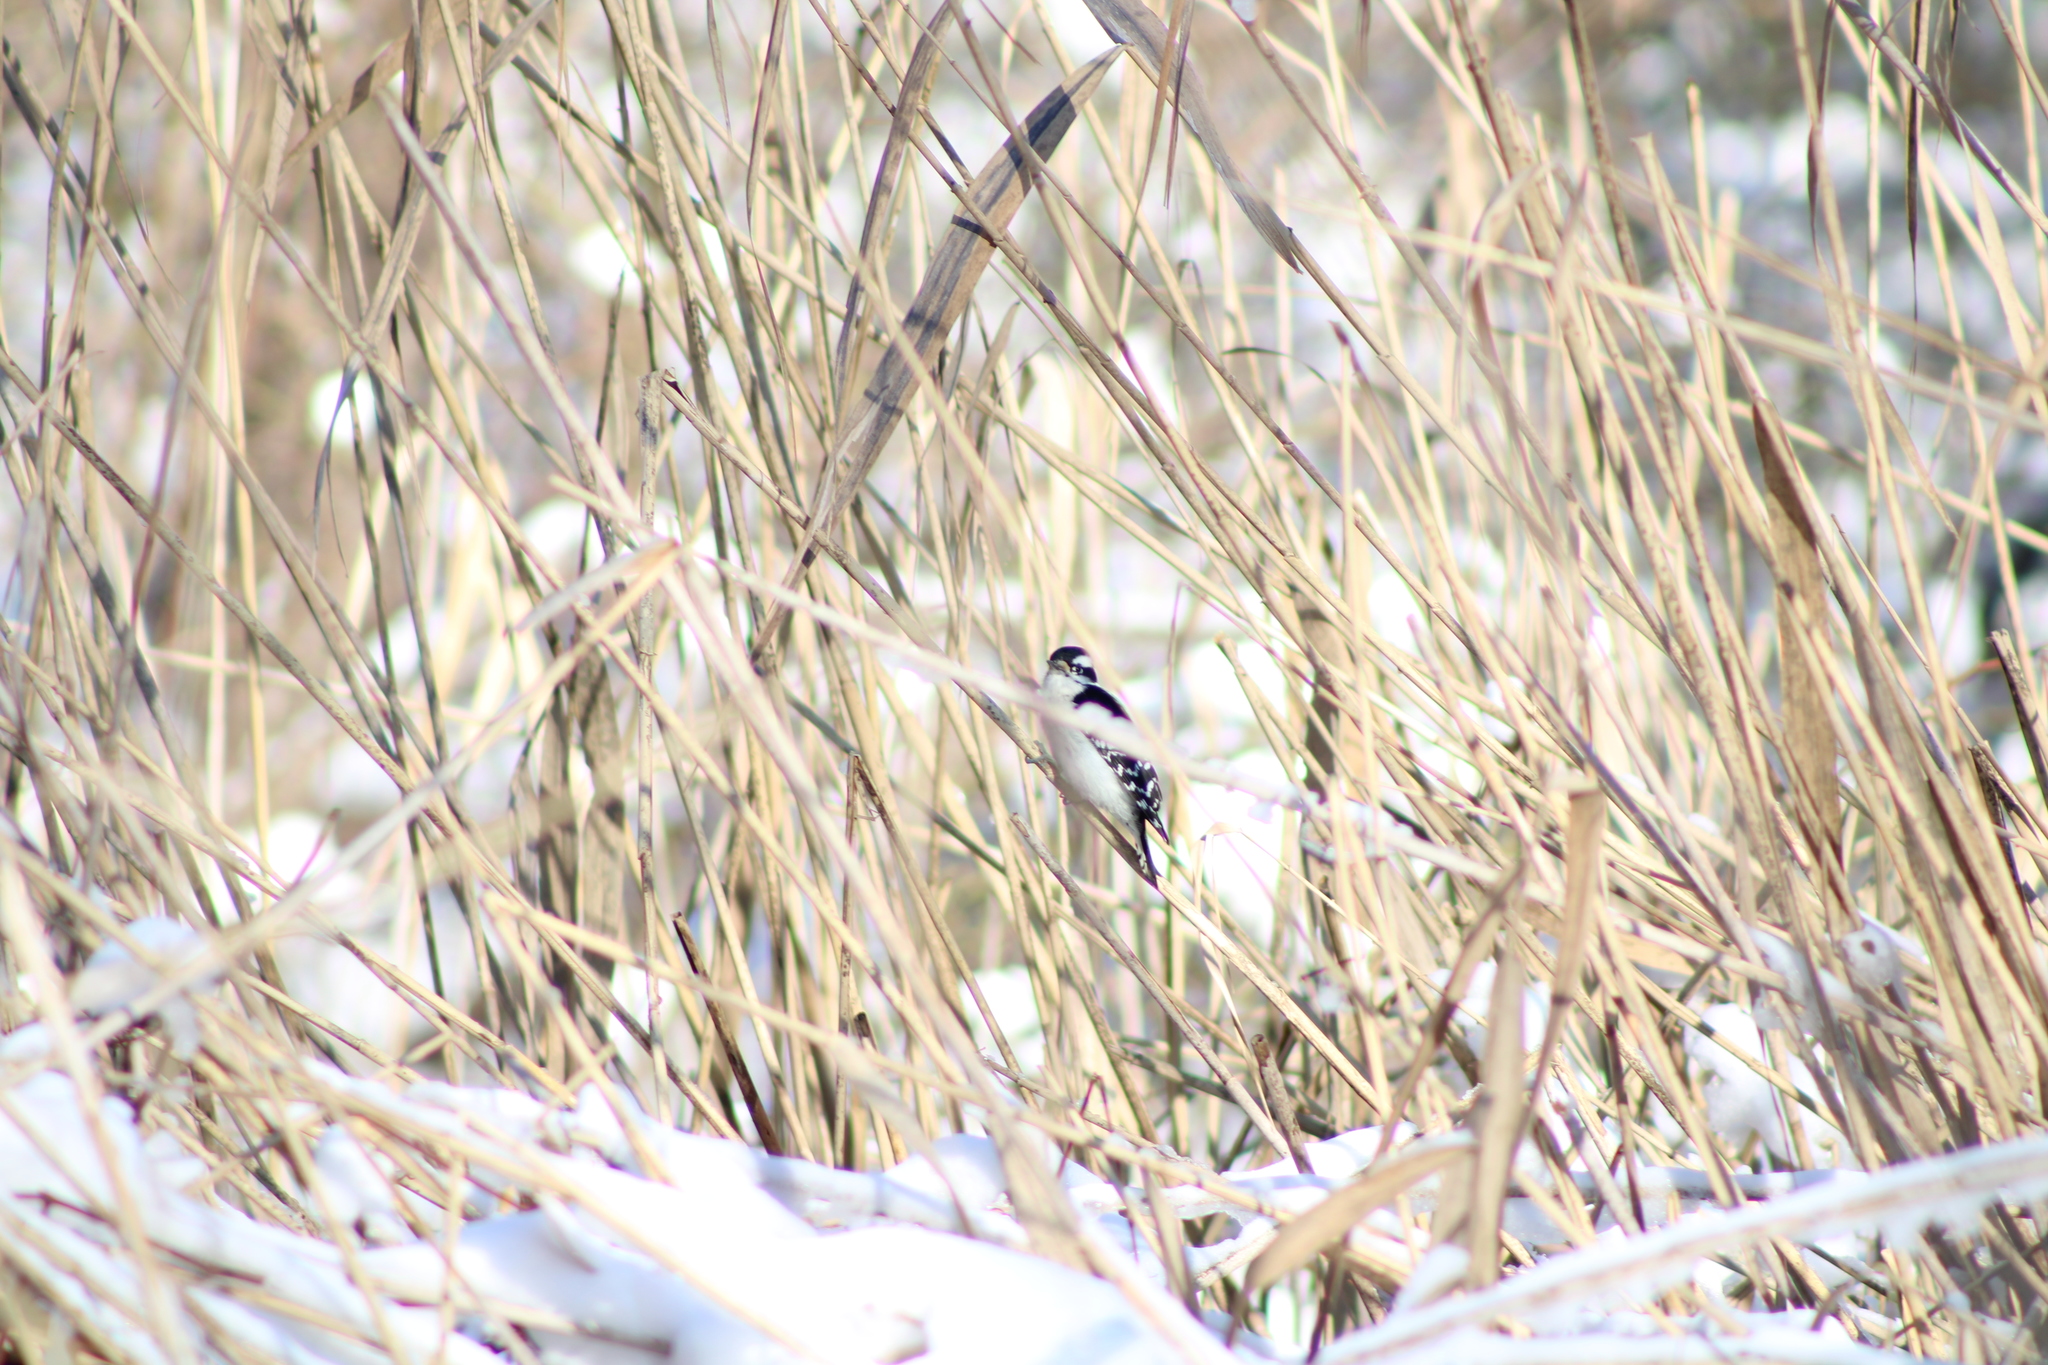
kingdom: Animalia
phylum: Chordata
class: Aves
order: Piciformes
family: Picidae
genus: Dryobates
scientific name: Dryobates pubescens
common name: Downy woodpecker
